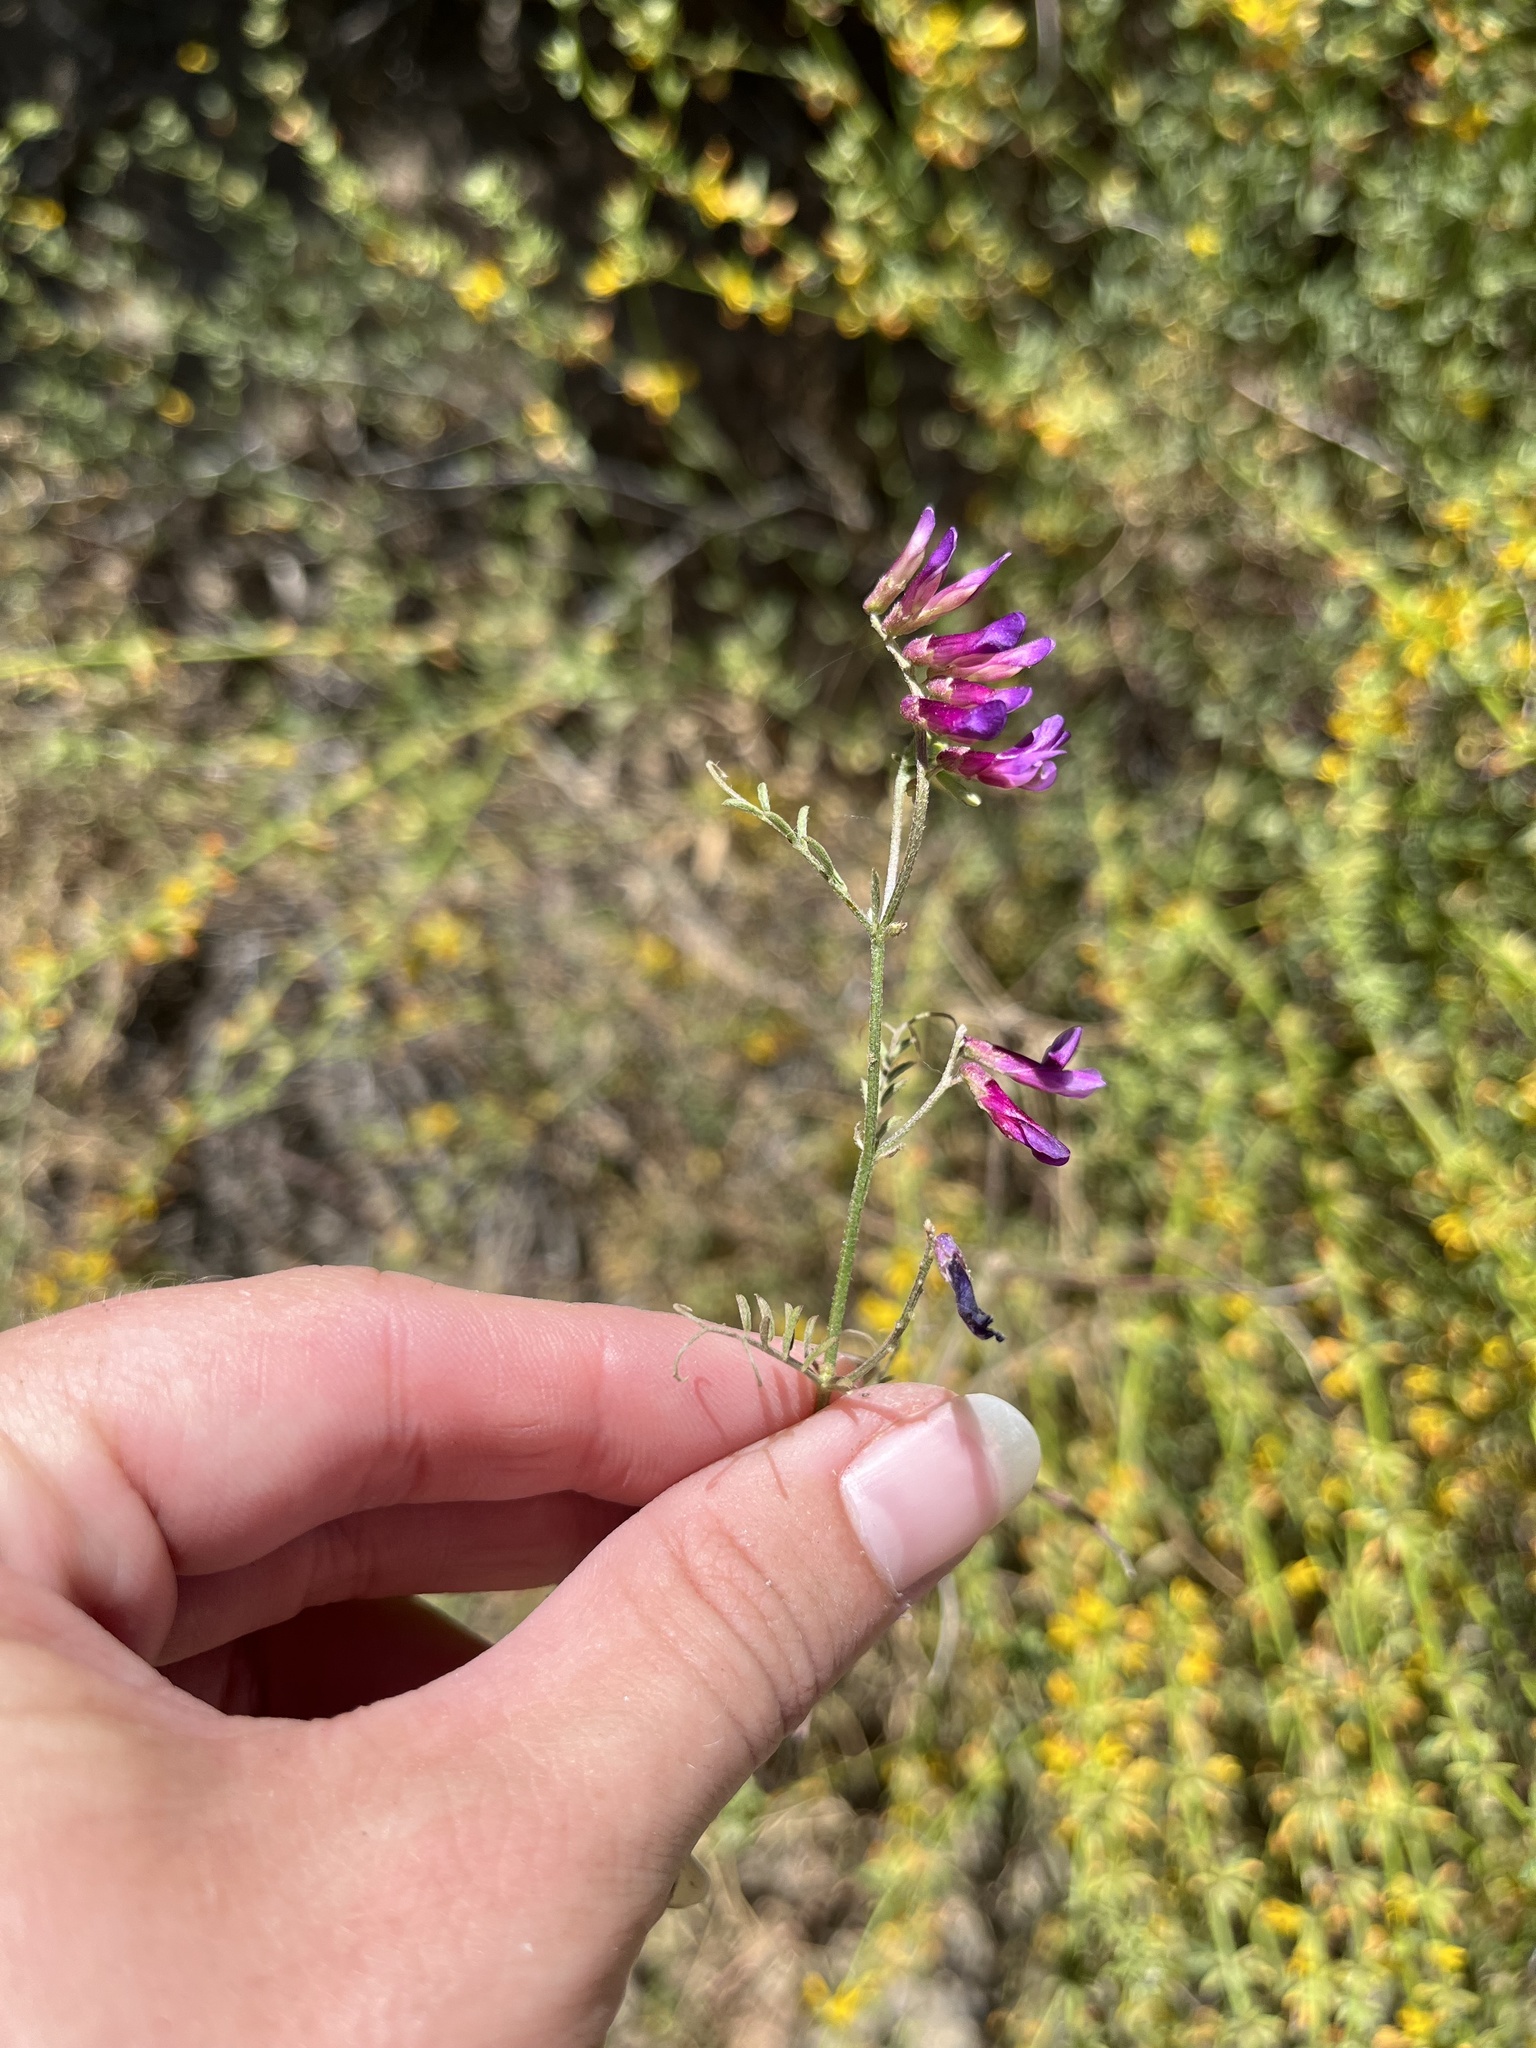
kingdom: Plantae
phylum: Tracheophyta
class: Magnoliopsida
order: Fabales
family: Fabaceae
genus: Vicia
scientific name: Vicia villosa
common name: Fodder vetch
